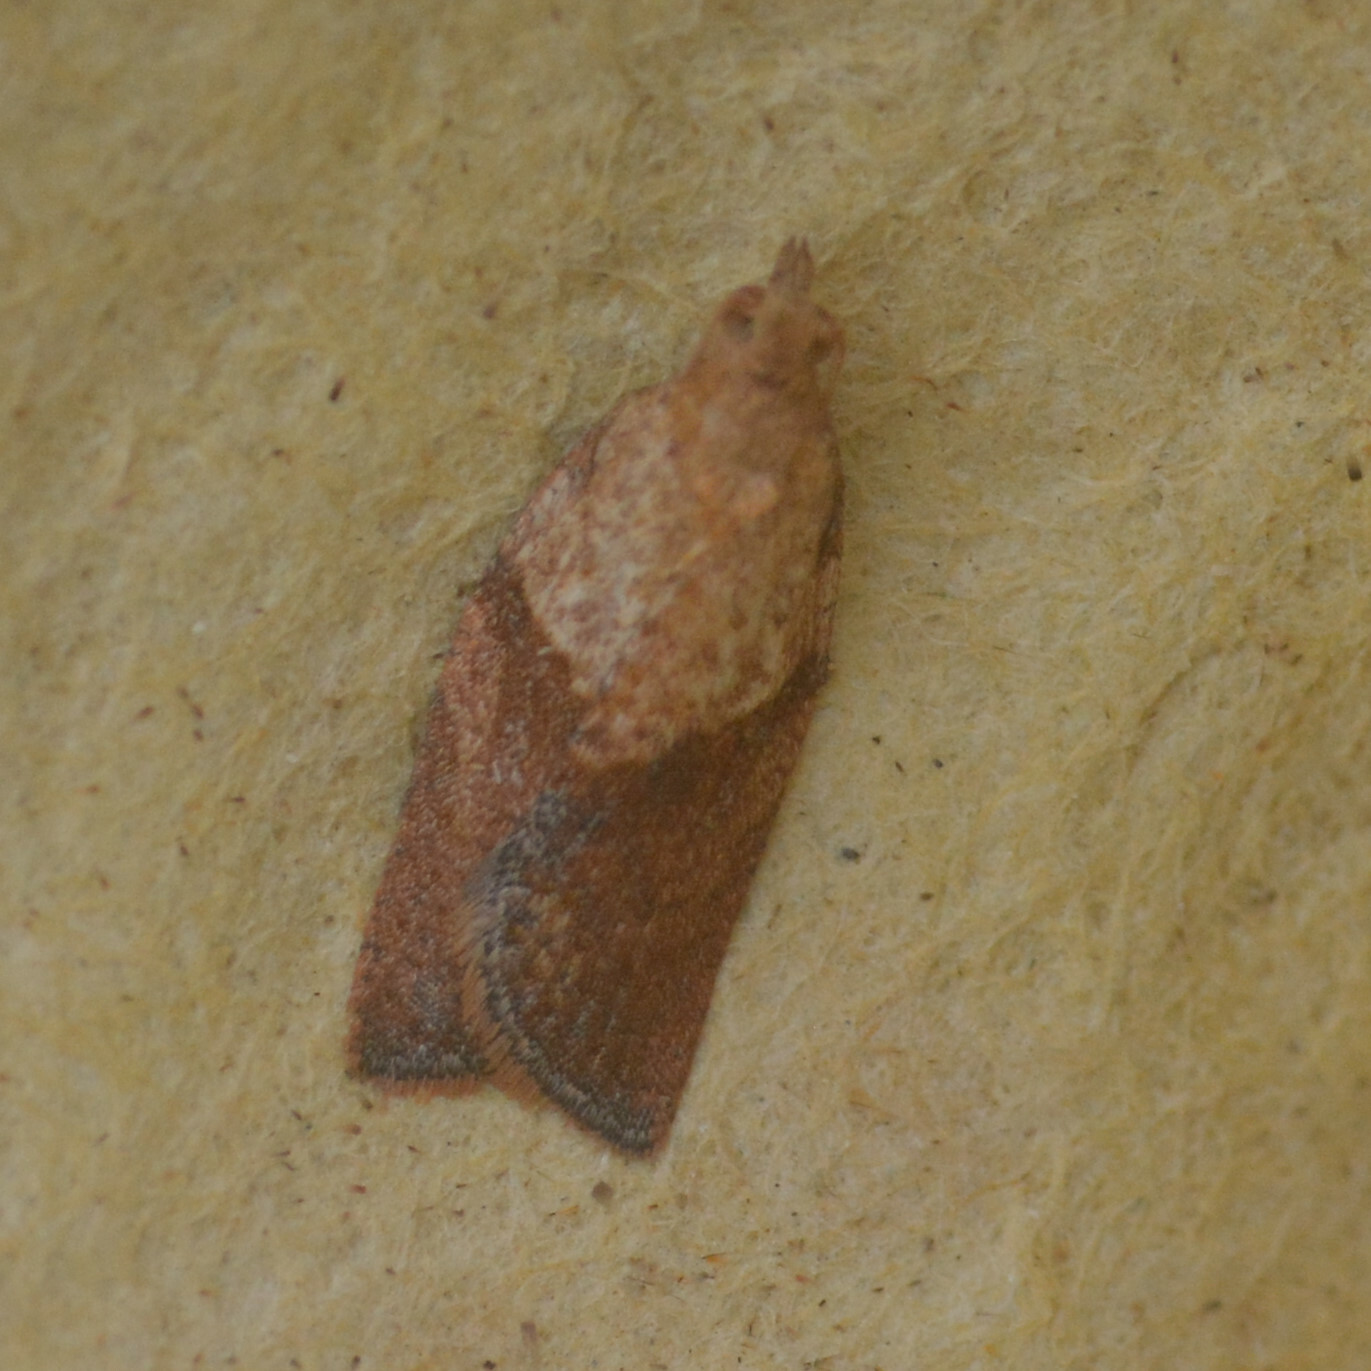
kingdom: Animalia
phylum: Arthropoda
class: Insecta
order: Lepidoptera
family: Tortricidae
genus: Epiphyas
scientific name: Epiphyas postvittana
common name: Light brown apple moth
